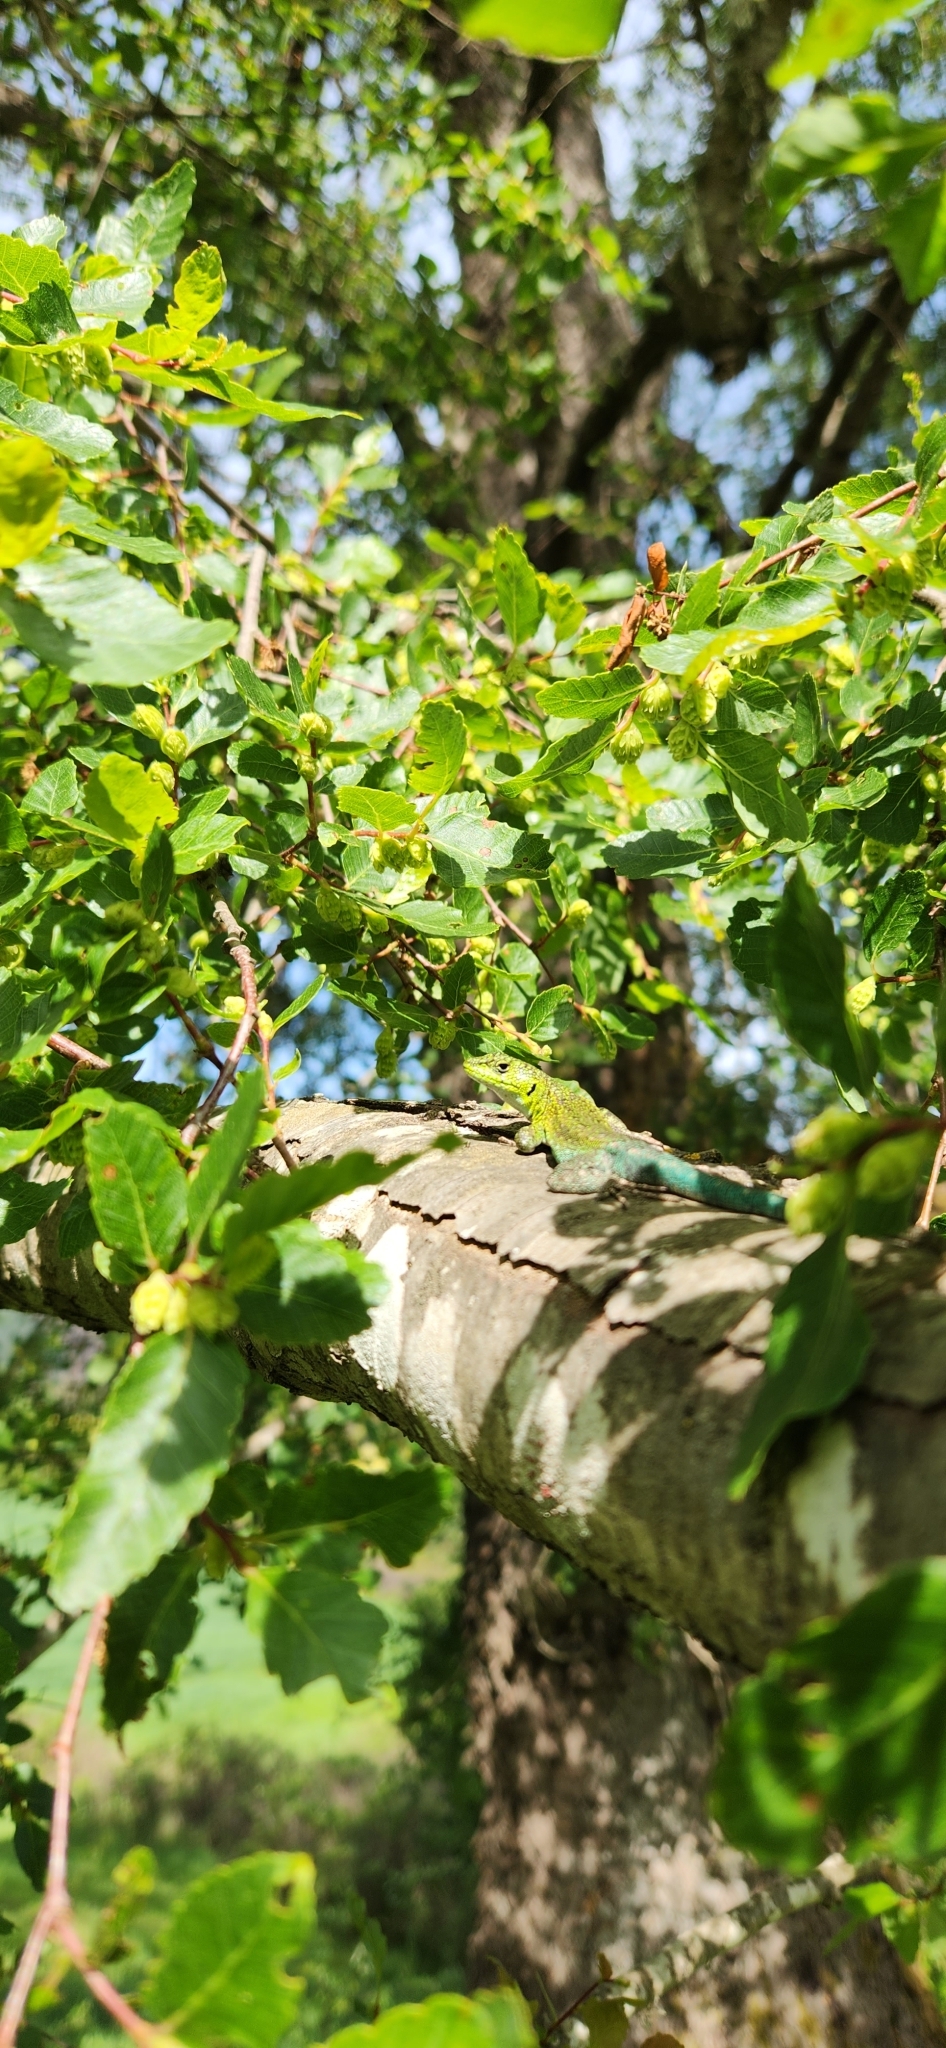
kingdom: Animalia
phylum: Chordata
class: Squamata
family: Liolaemidae
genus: Liolaemus
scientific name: Liolaemus tenuis
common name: Thin tree iguana
